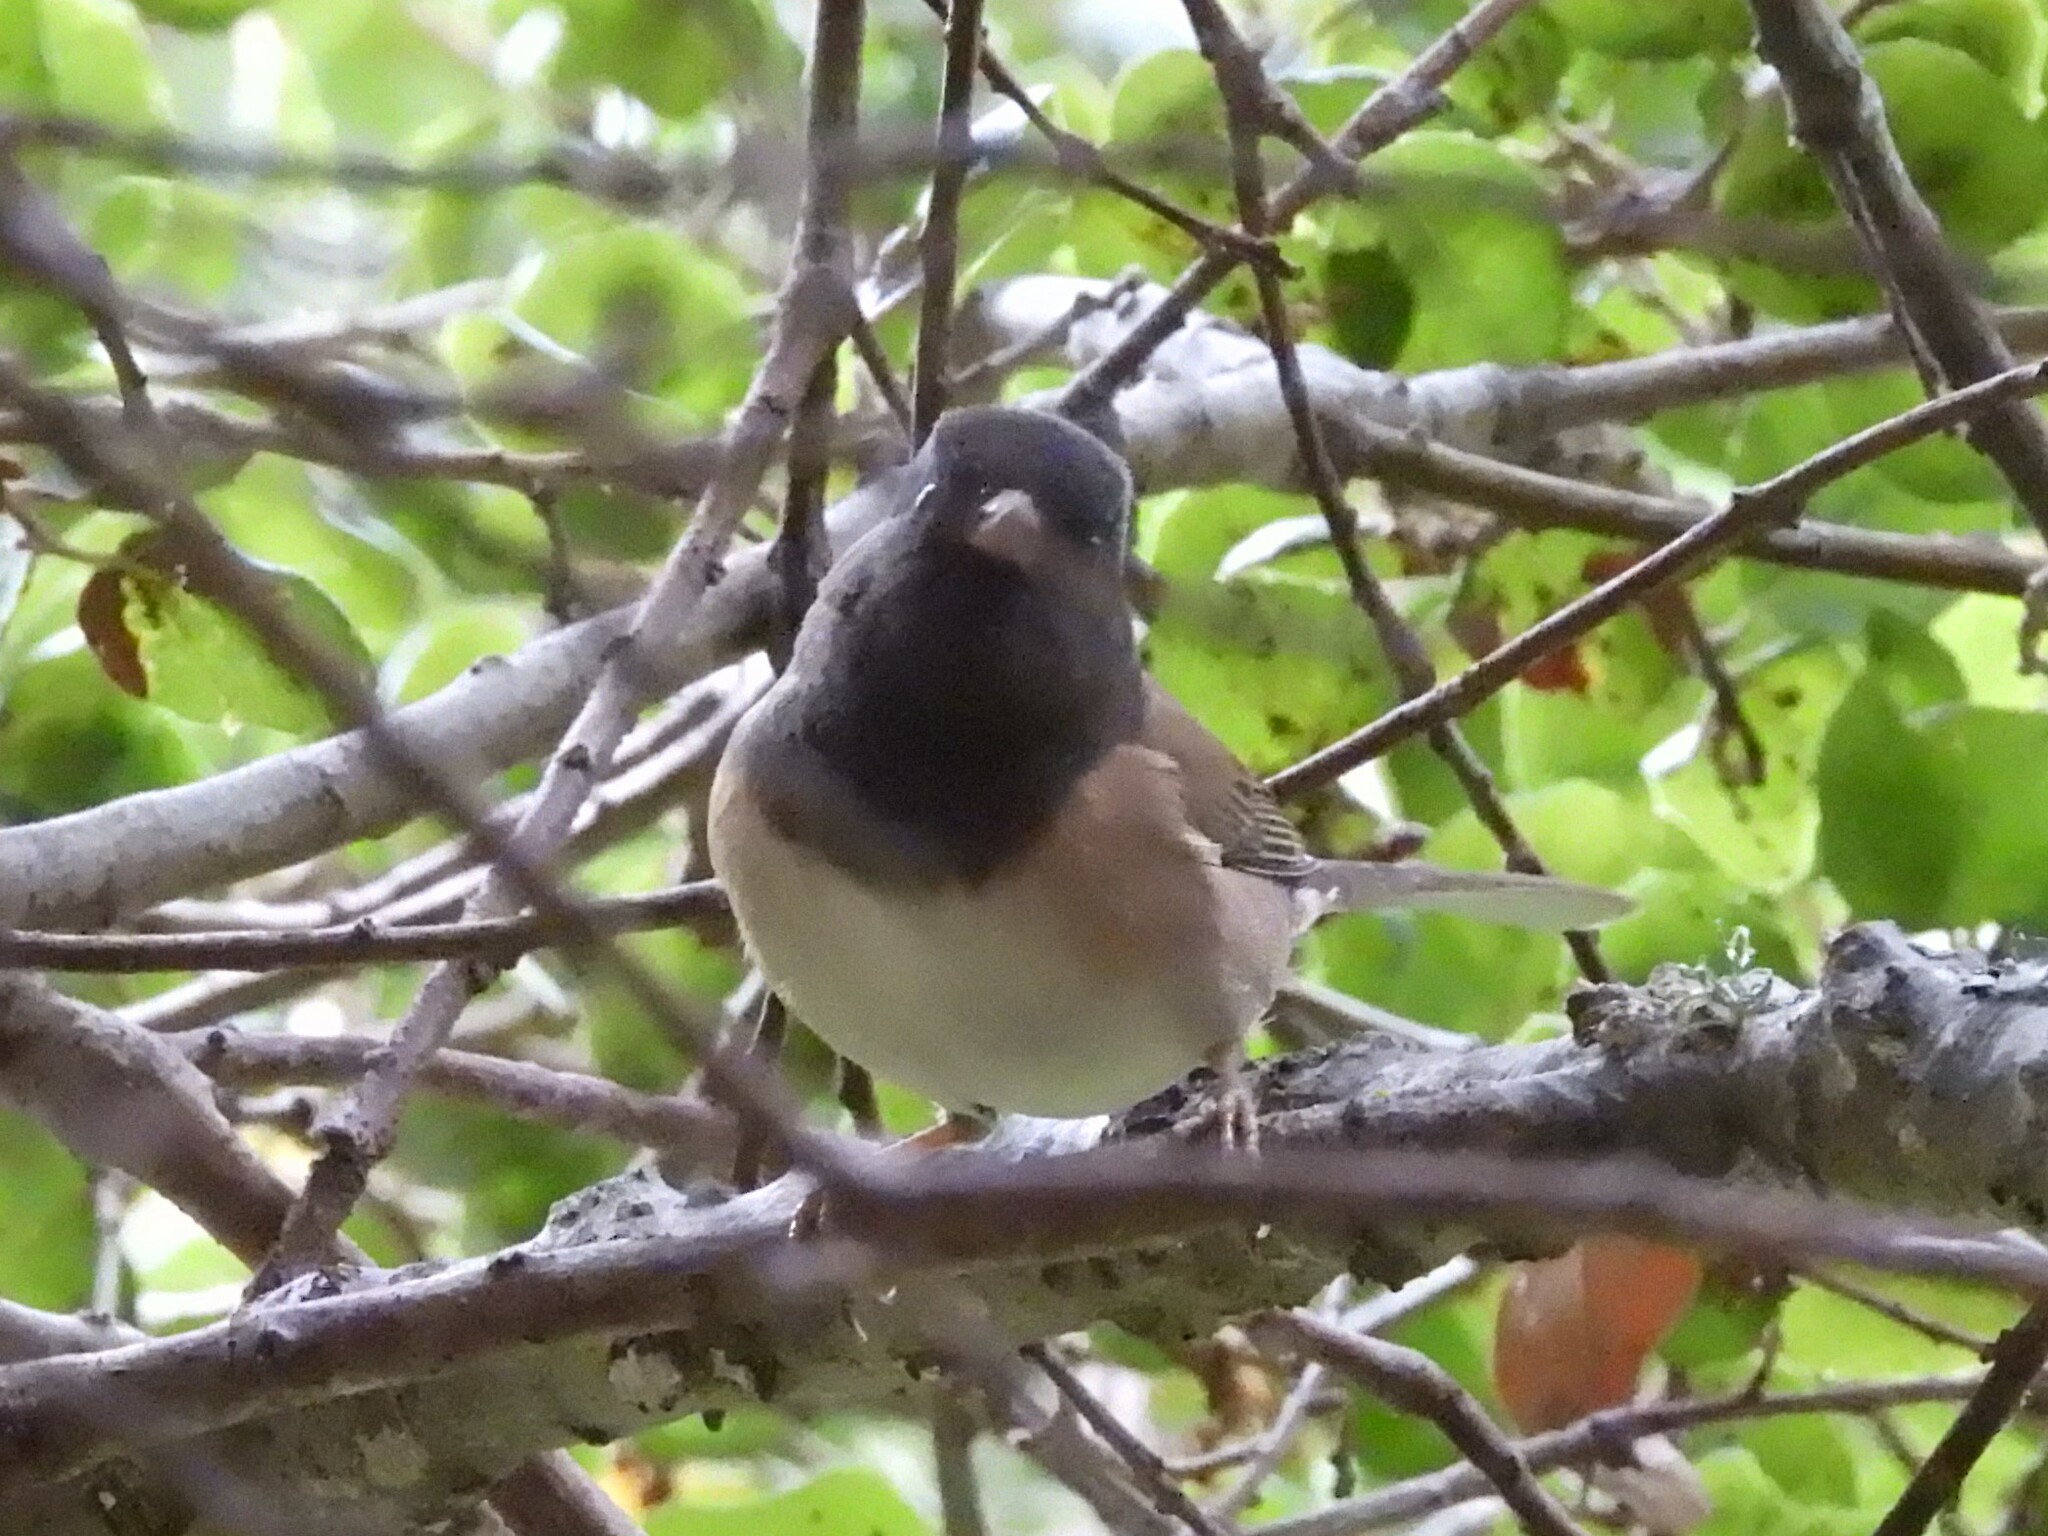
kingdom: Animalia
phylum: Chordata
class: Aves
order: Passeriformes
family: Passerellidae
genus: Junco
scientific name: Junco hyemalis
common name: Dark-eyed junco
